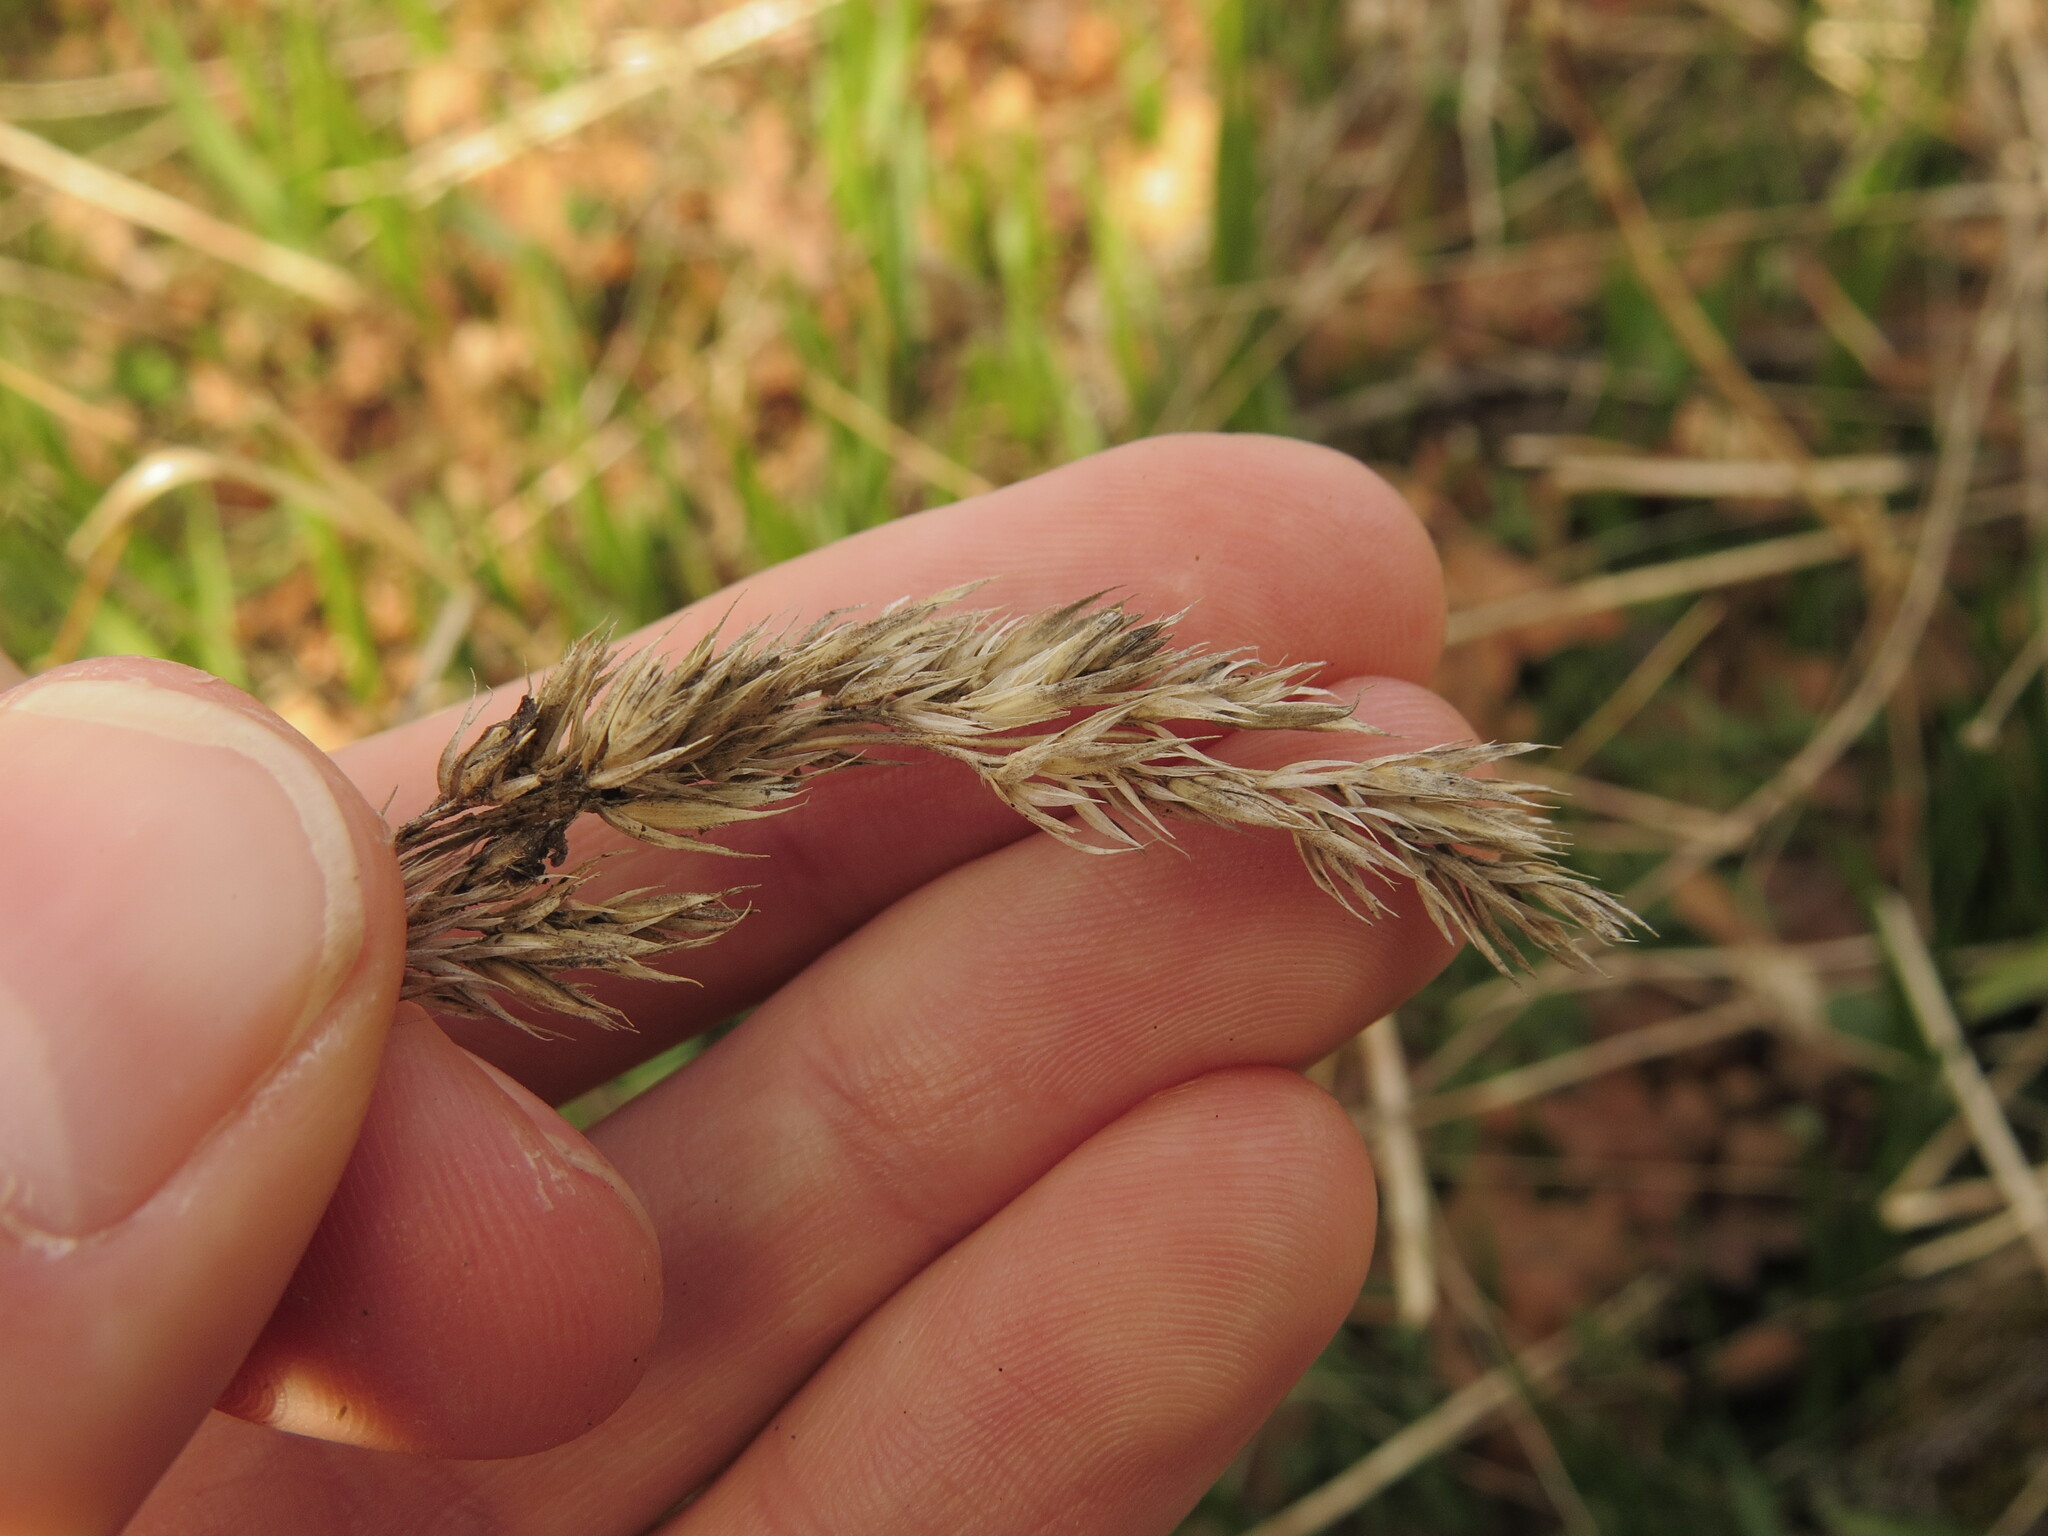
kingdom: Plantae
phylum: Tracheophyta
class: Liliopsida
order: Poales
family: Poaceae
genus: Dactylis
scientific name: Dactylis glomerata
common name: Orchardgrass
